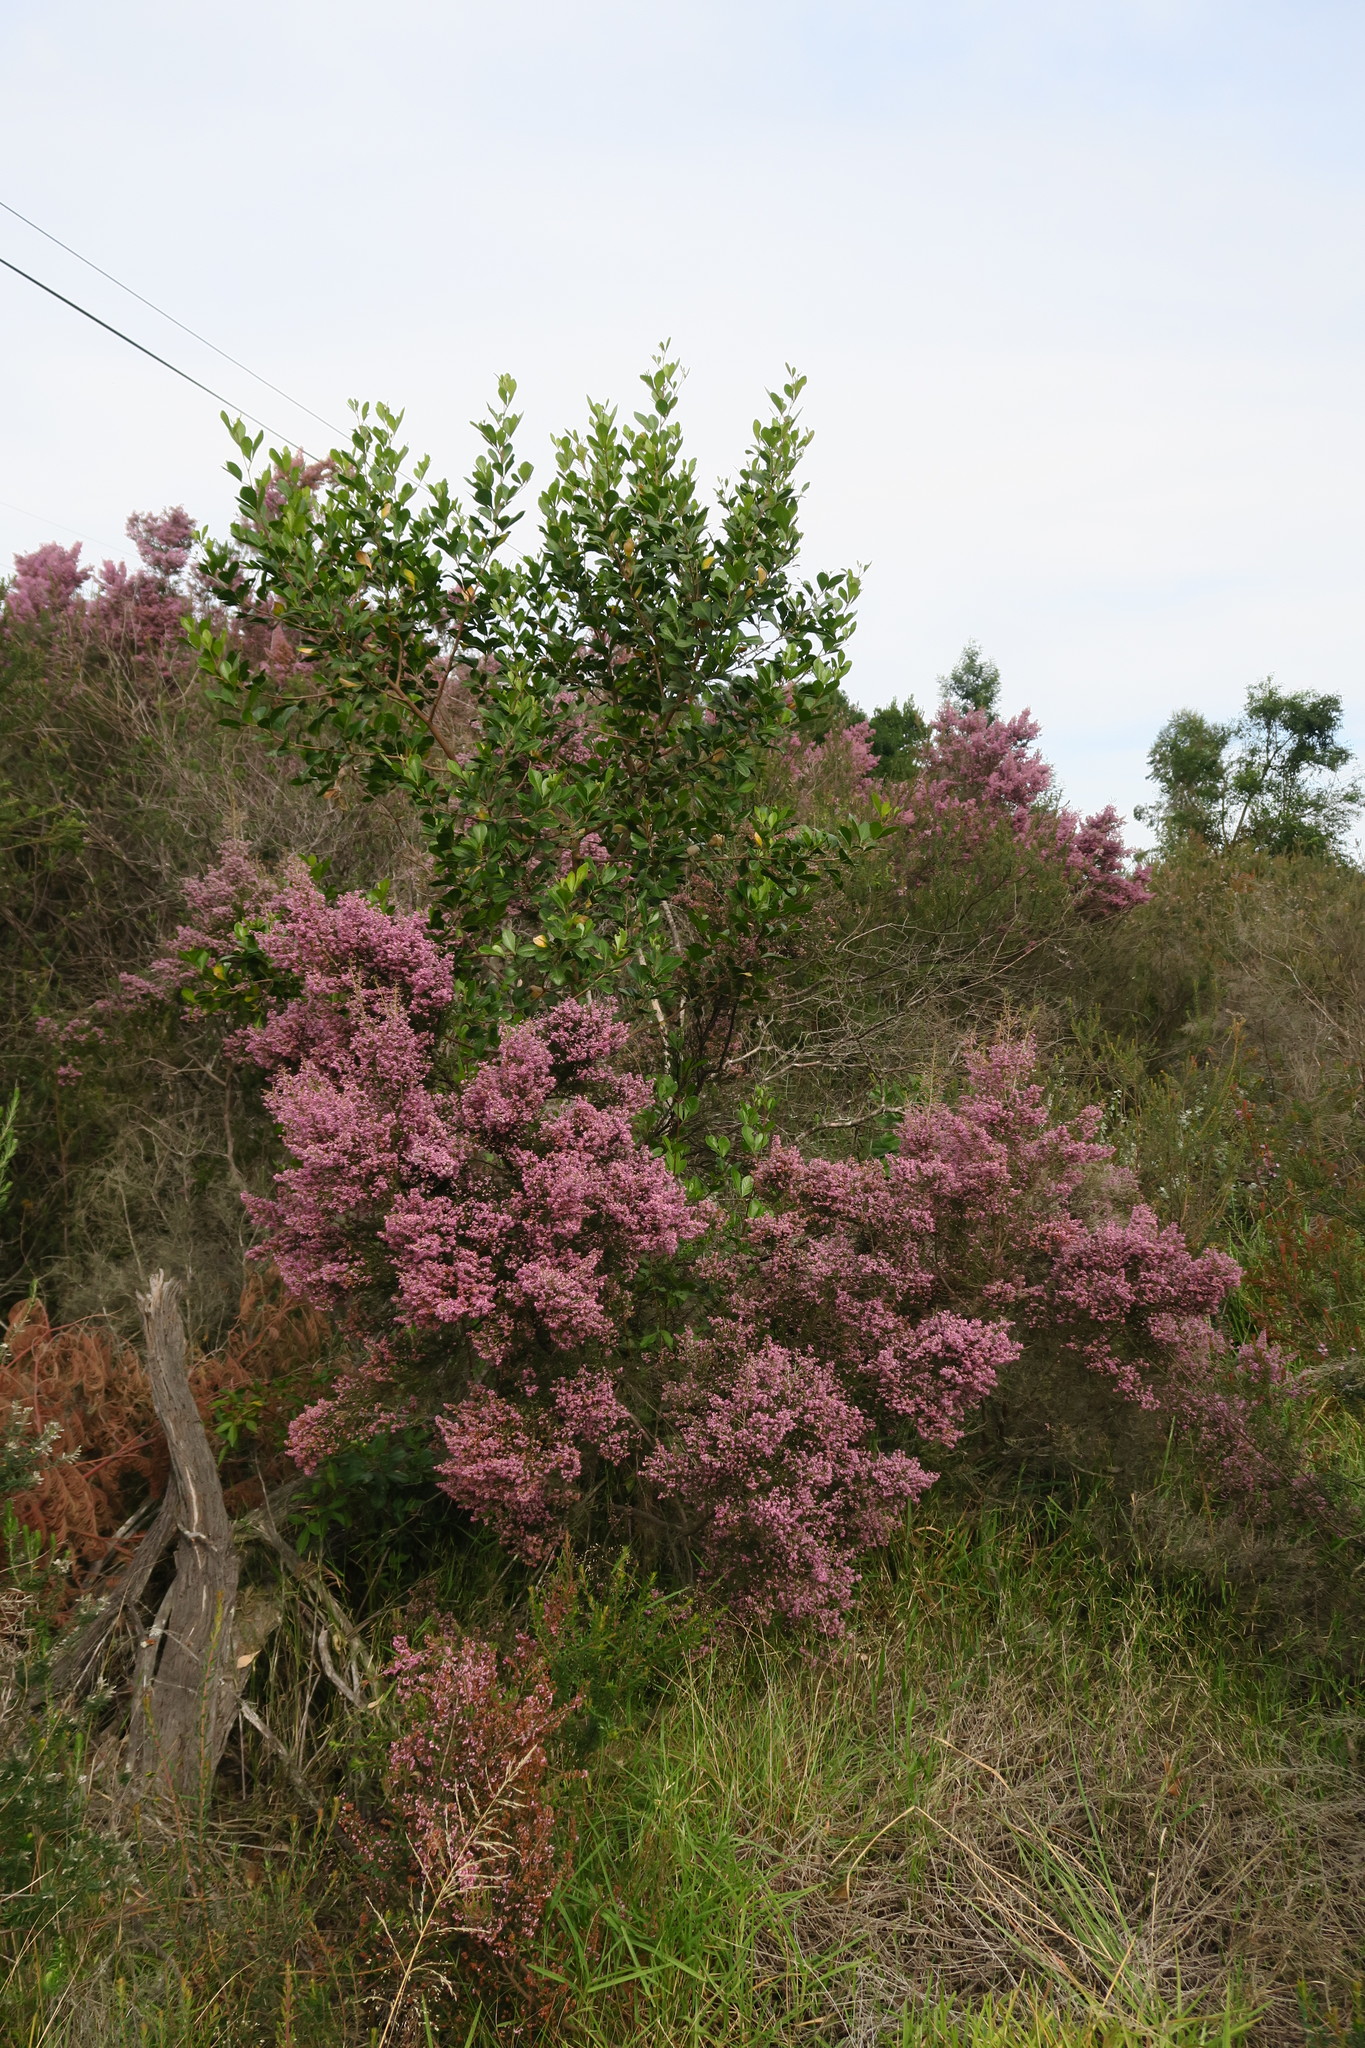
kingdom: Plantae
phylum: Tracheophyta
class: Magnoliopsida
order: Ericales
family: Ericaceae
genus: Erica
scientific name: Erica canaliculata
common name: Hairy grey heather
